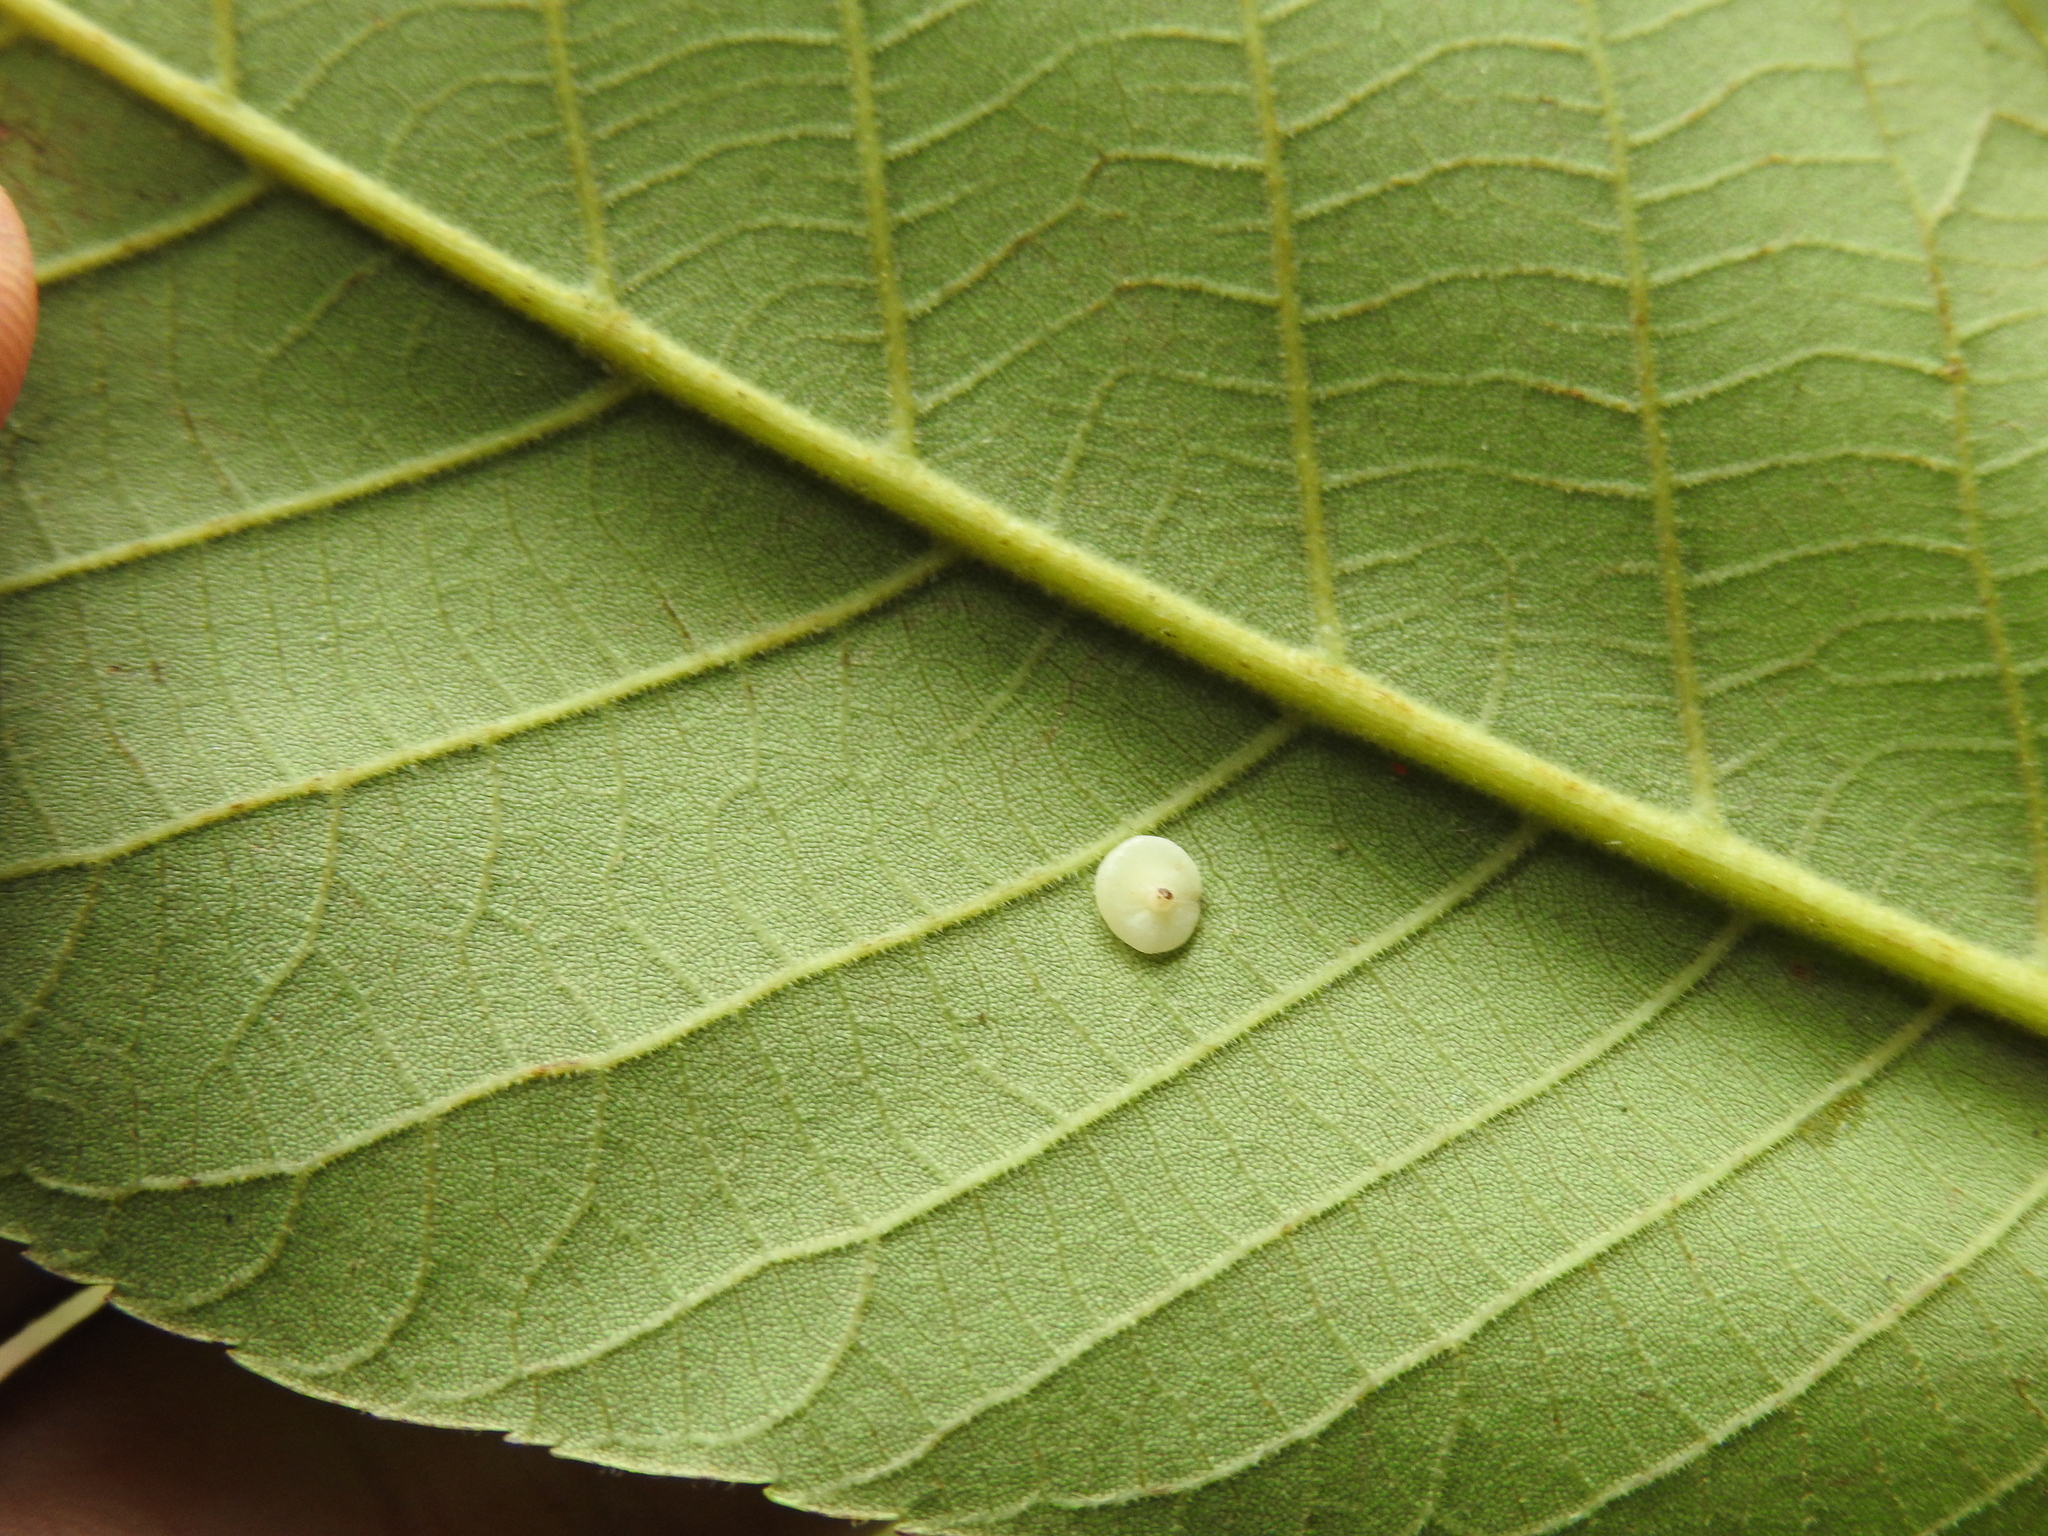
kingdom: Animalia
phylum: Arthropoda
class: Insecta
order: Diptera
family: Cecidomyiidae
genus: Caryomyia
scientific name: Caryomyia biretta
